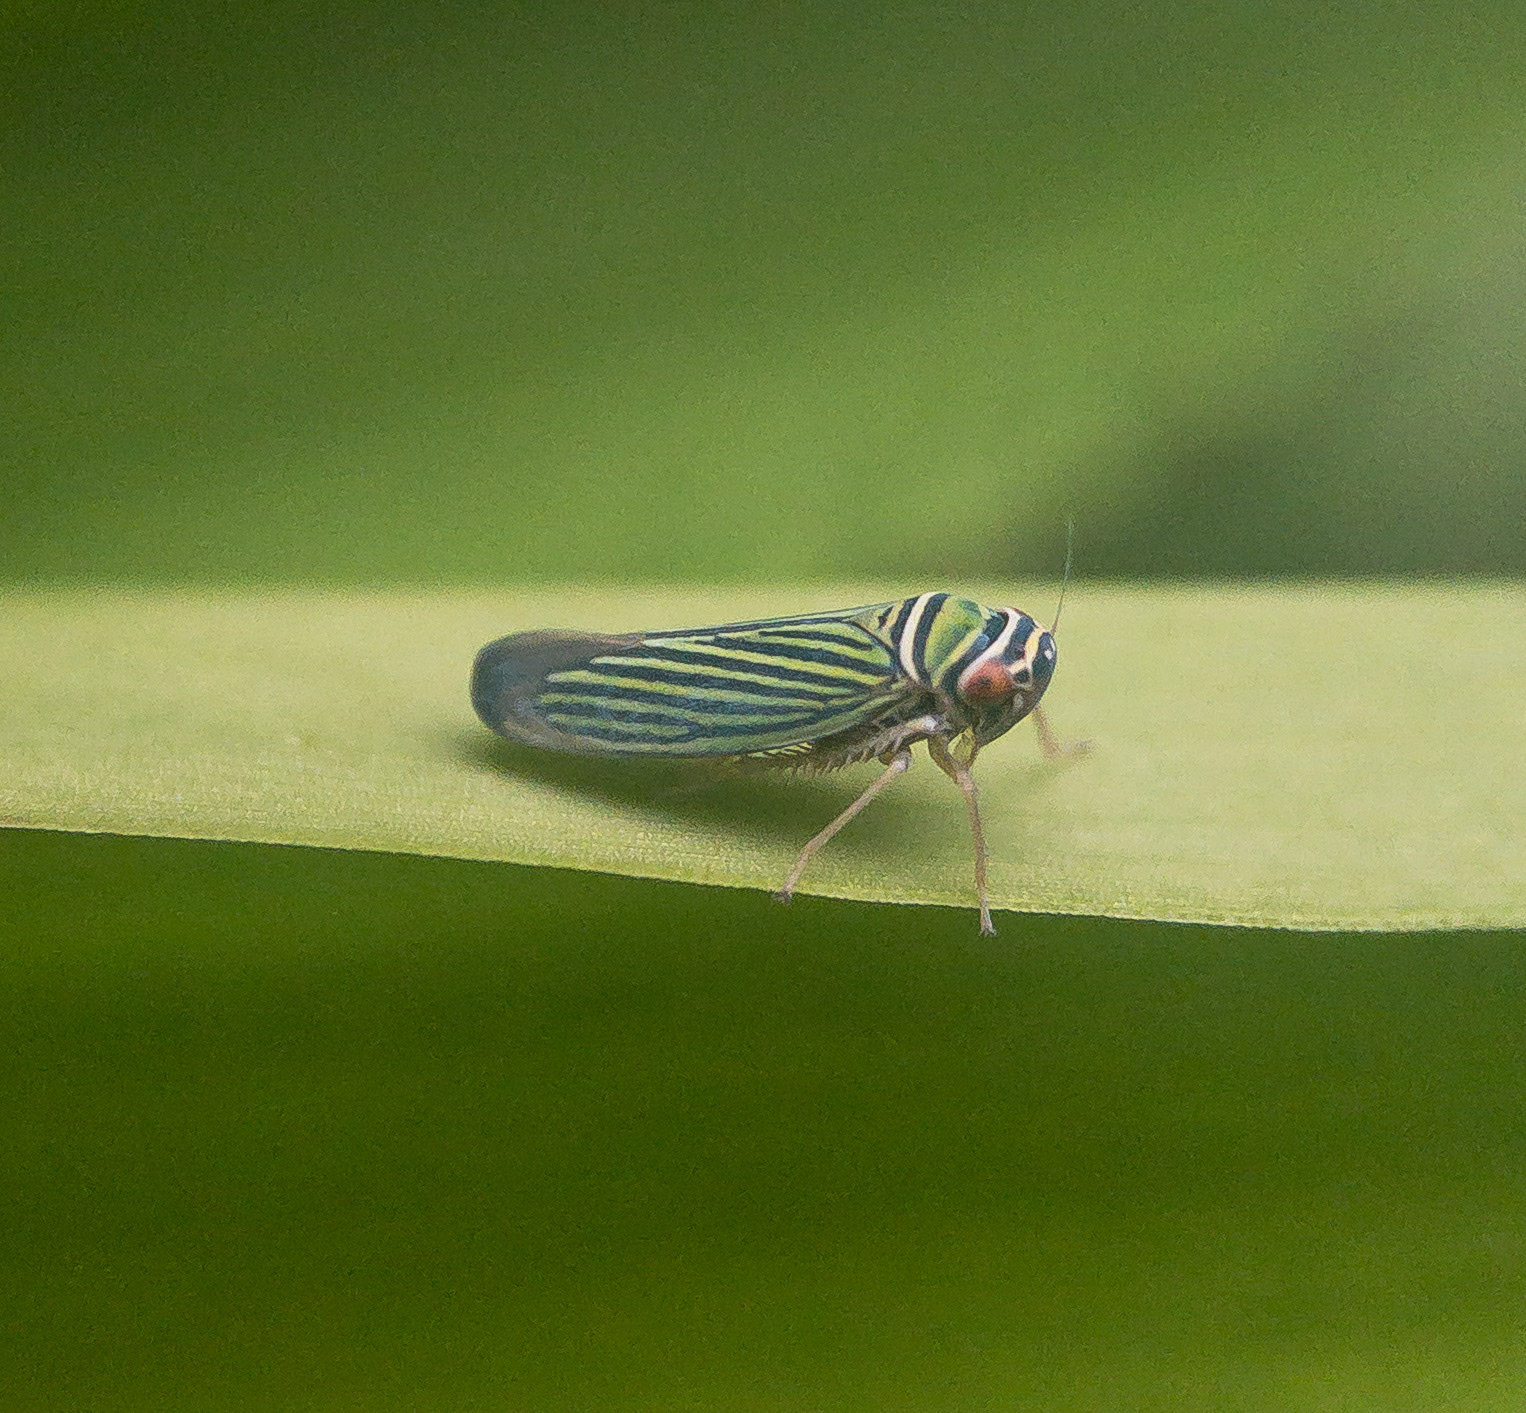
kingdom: Animalia
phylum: Arthropoda
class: Insecta
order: Hemiptera
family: Cicadellidae
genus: Tylozygus
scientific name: Tylozygus bifidus
